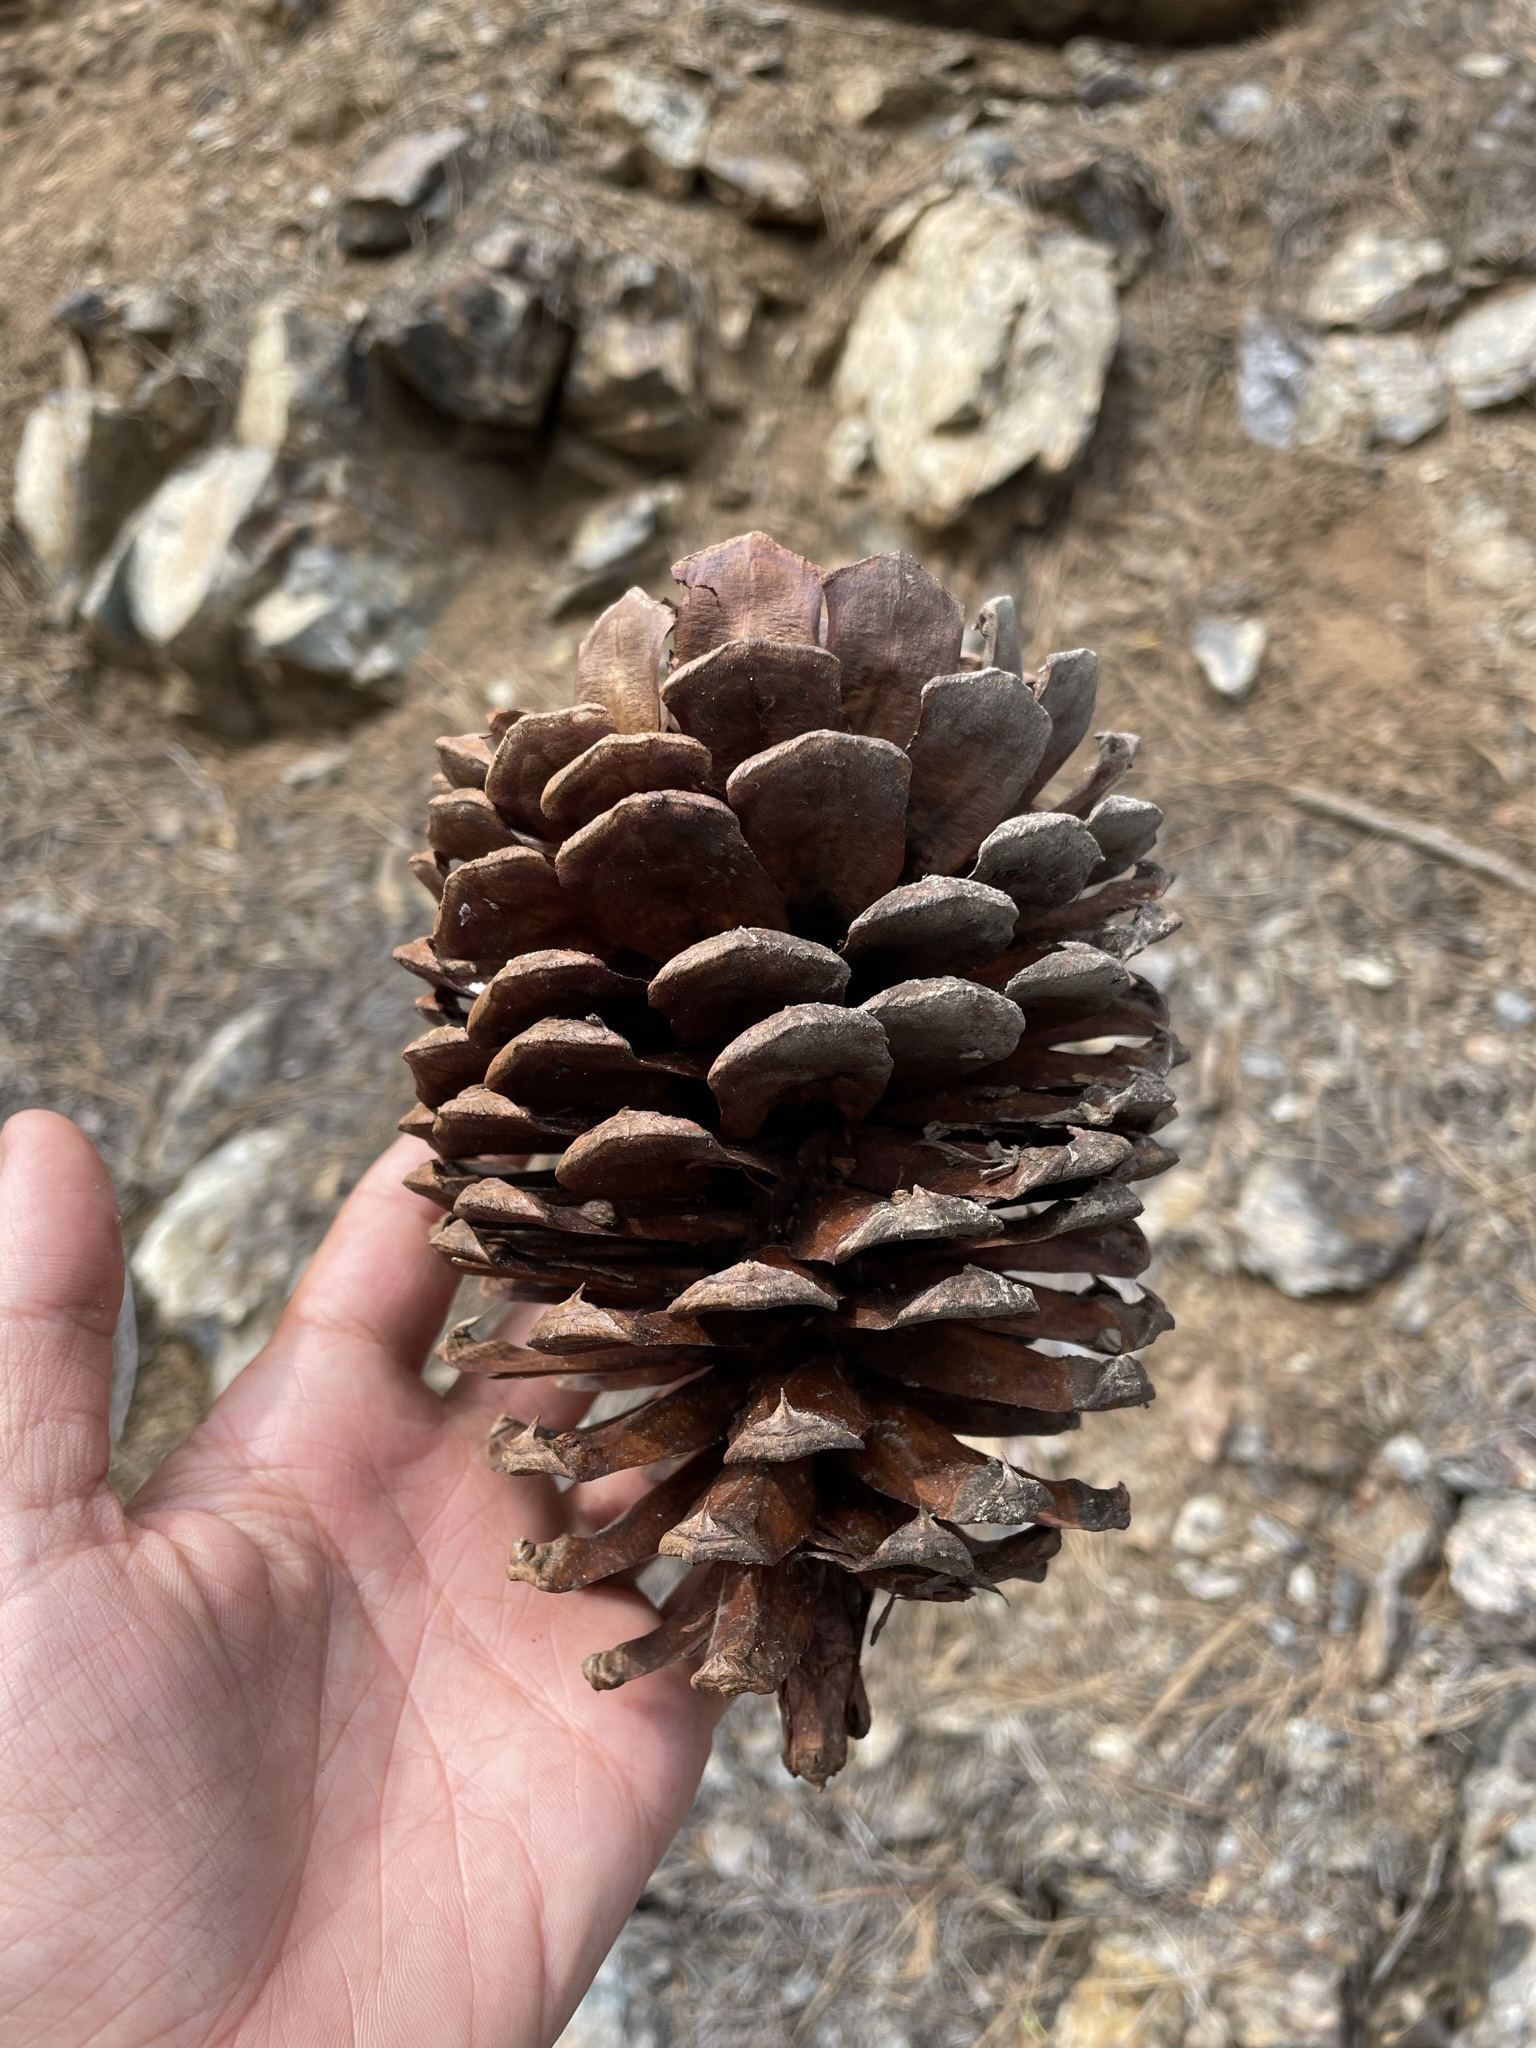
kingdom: Plantae
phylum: Tracheophyta
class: Pinopsida
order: Pinales
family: Pinaceae
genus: Pinus
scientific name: Pinus jeffreyi
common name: Jeffrey pine
